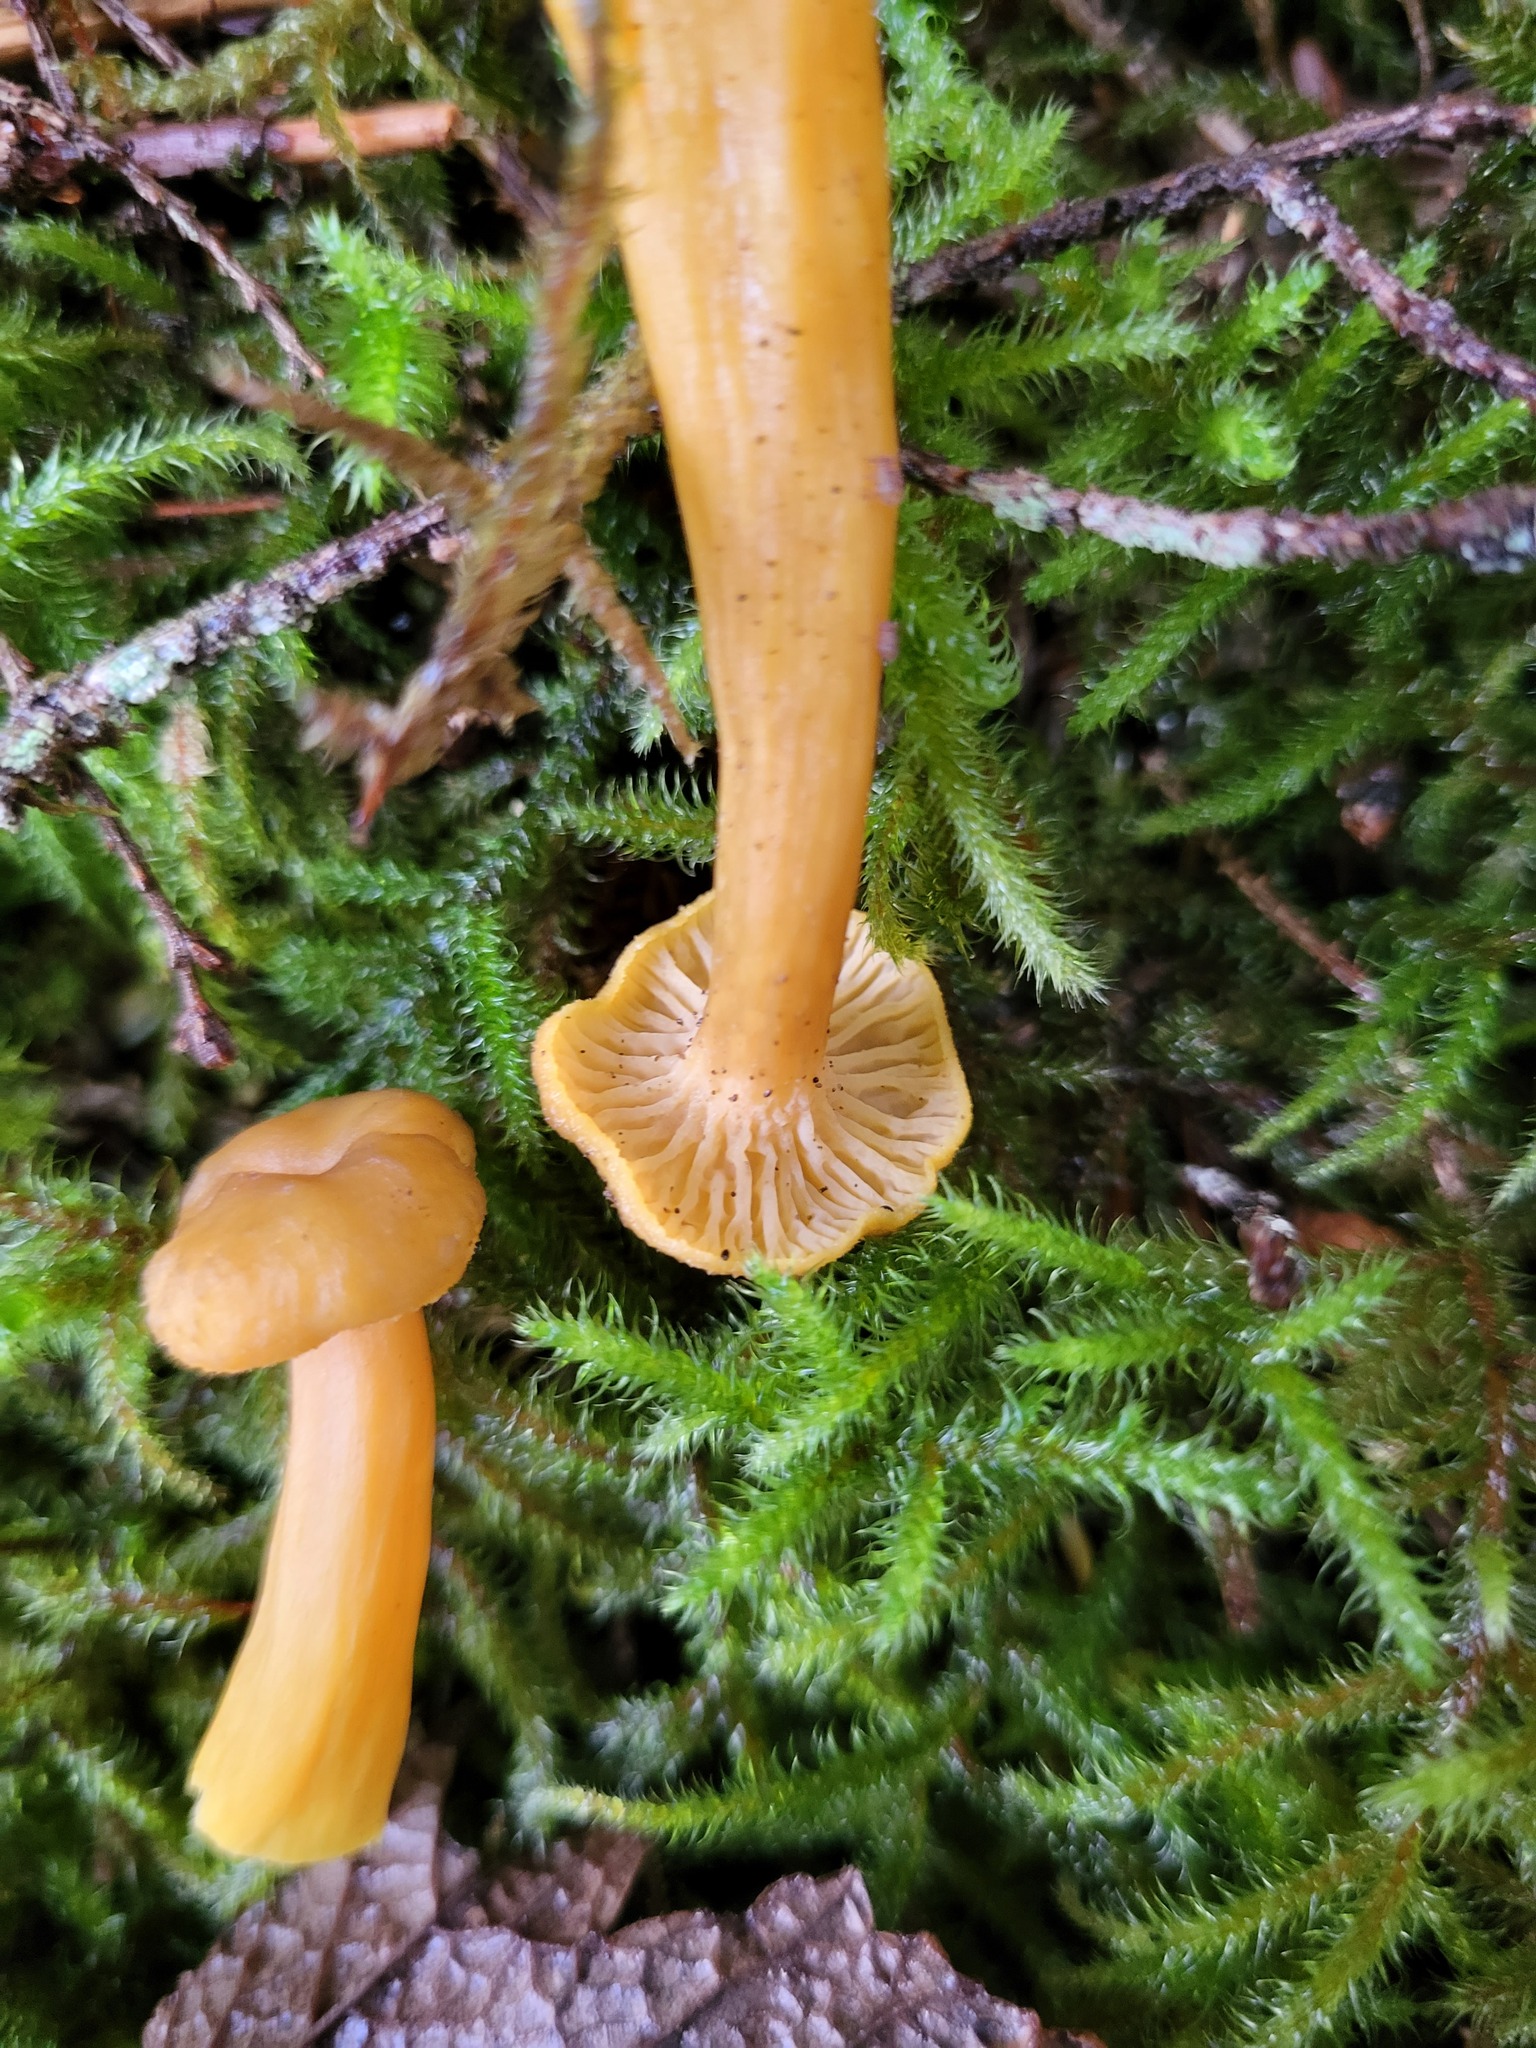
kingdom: Fungi
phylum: Basidiomycota
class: Agaricomycetes
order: Cantharellales
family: Hydnaceae
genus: Craterellus
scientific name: Craterellus tubaeformis
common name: Yellowfoot
